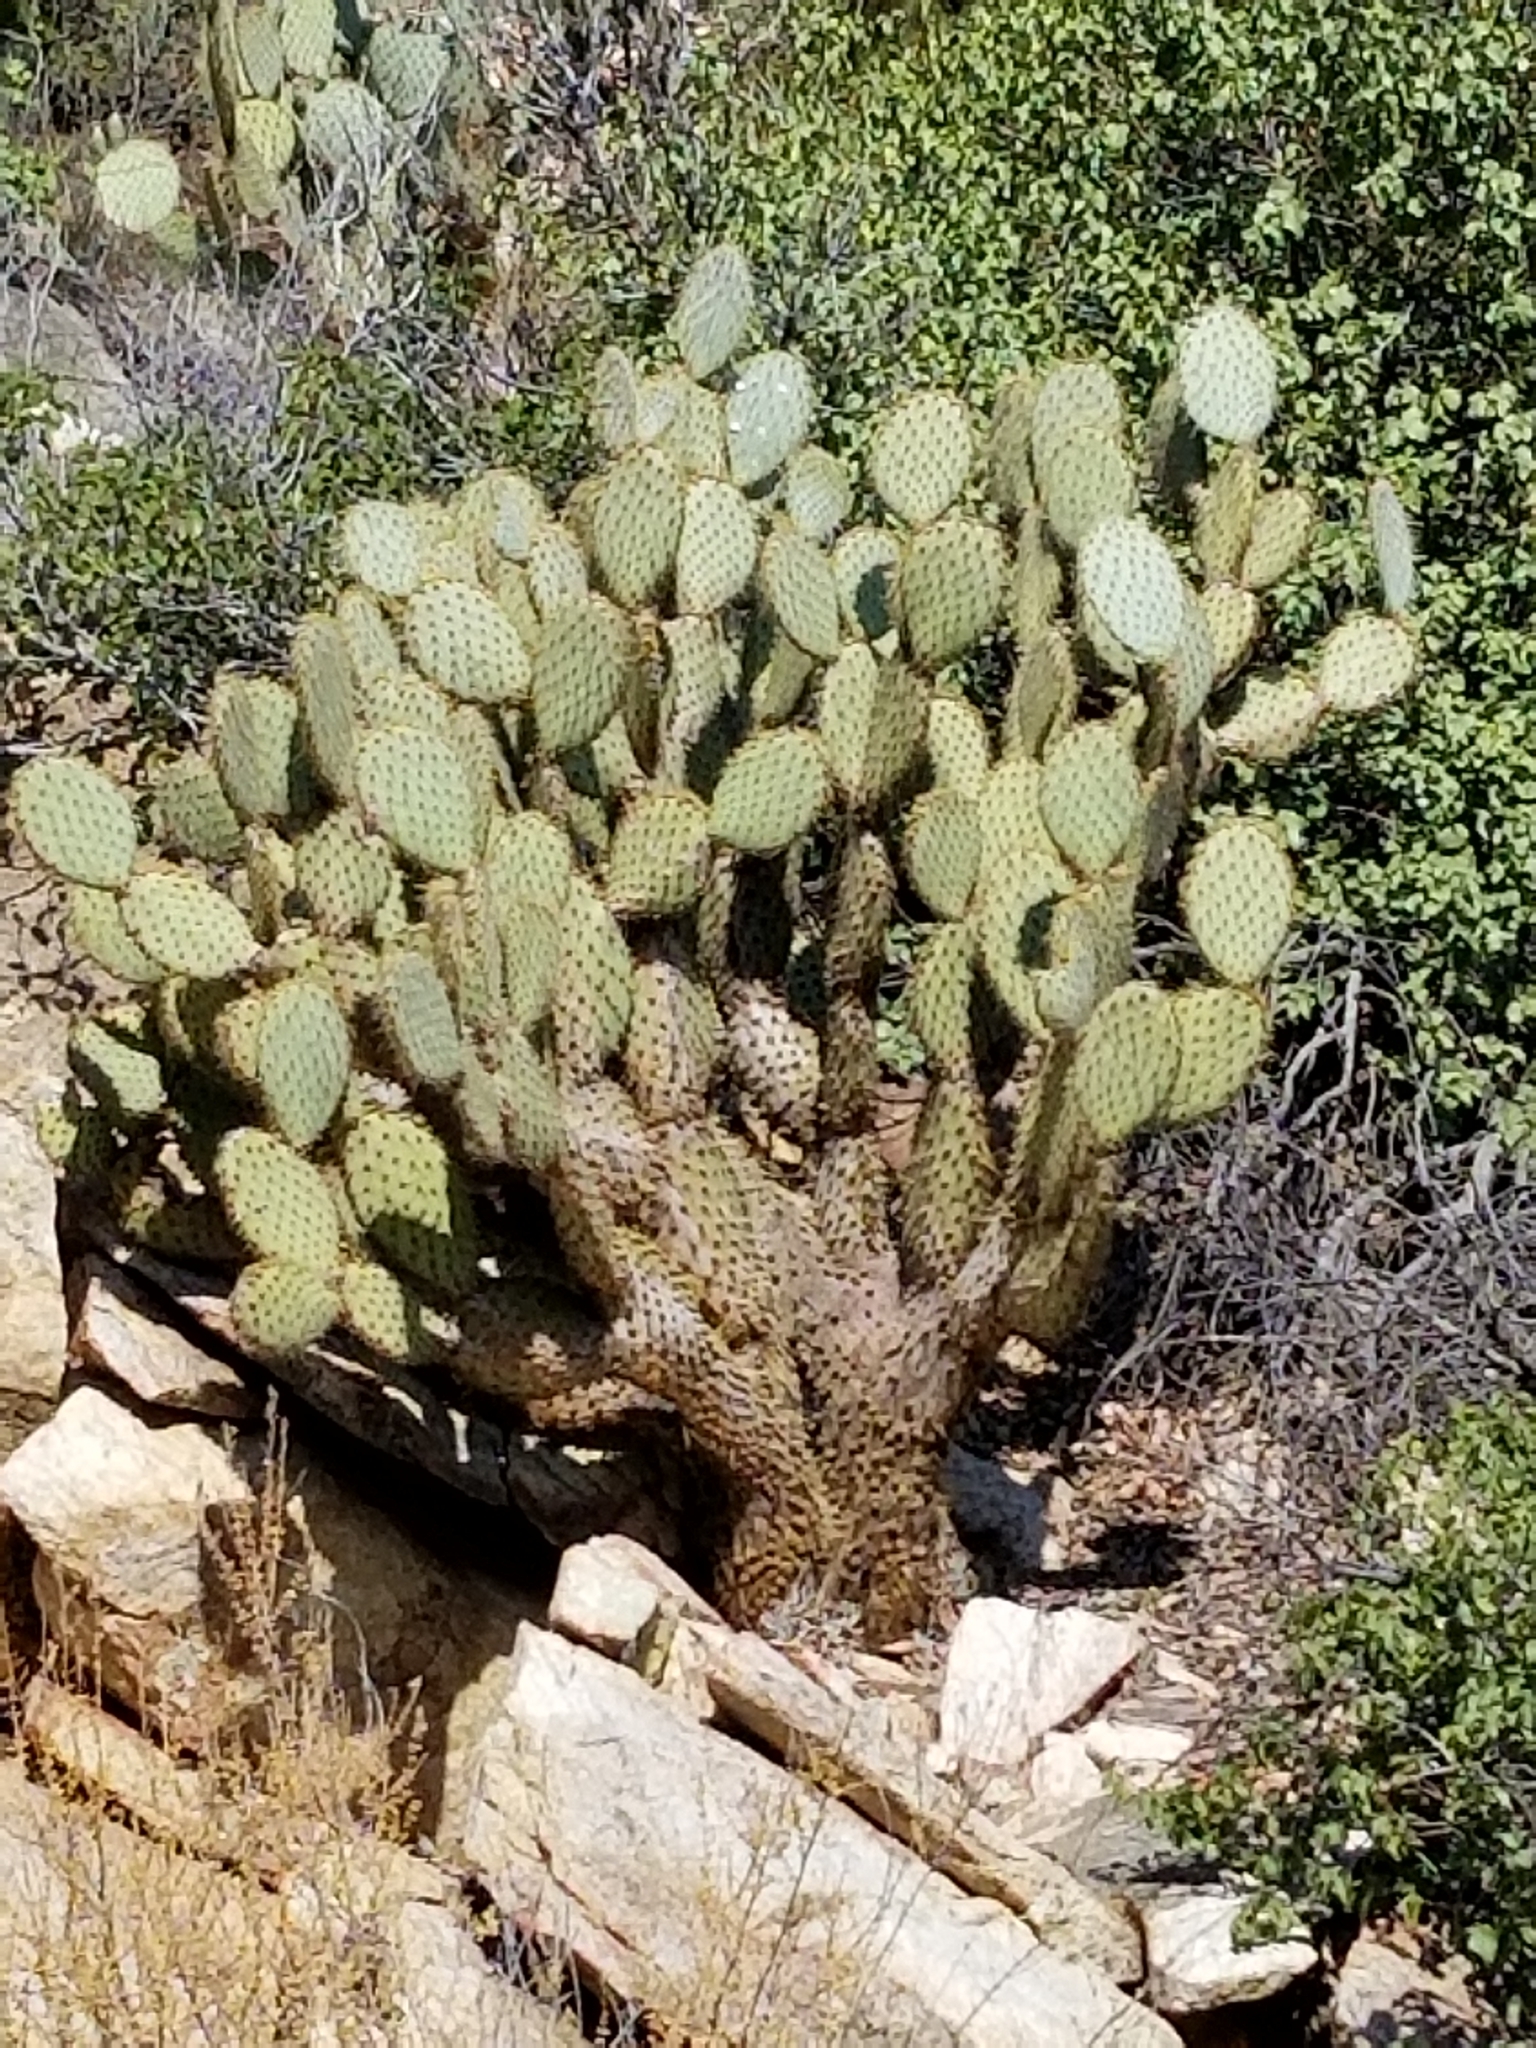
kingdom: Plantae
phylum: Tracheophyta
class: Magnoliopsida
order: Caryophyllales
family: Cactaceae
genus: Opuntia
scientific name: Opuntia chlorotica
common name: Dollar-joint prickly-pear
